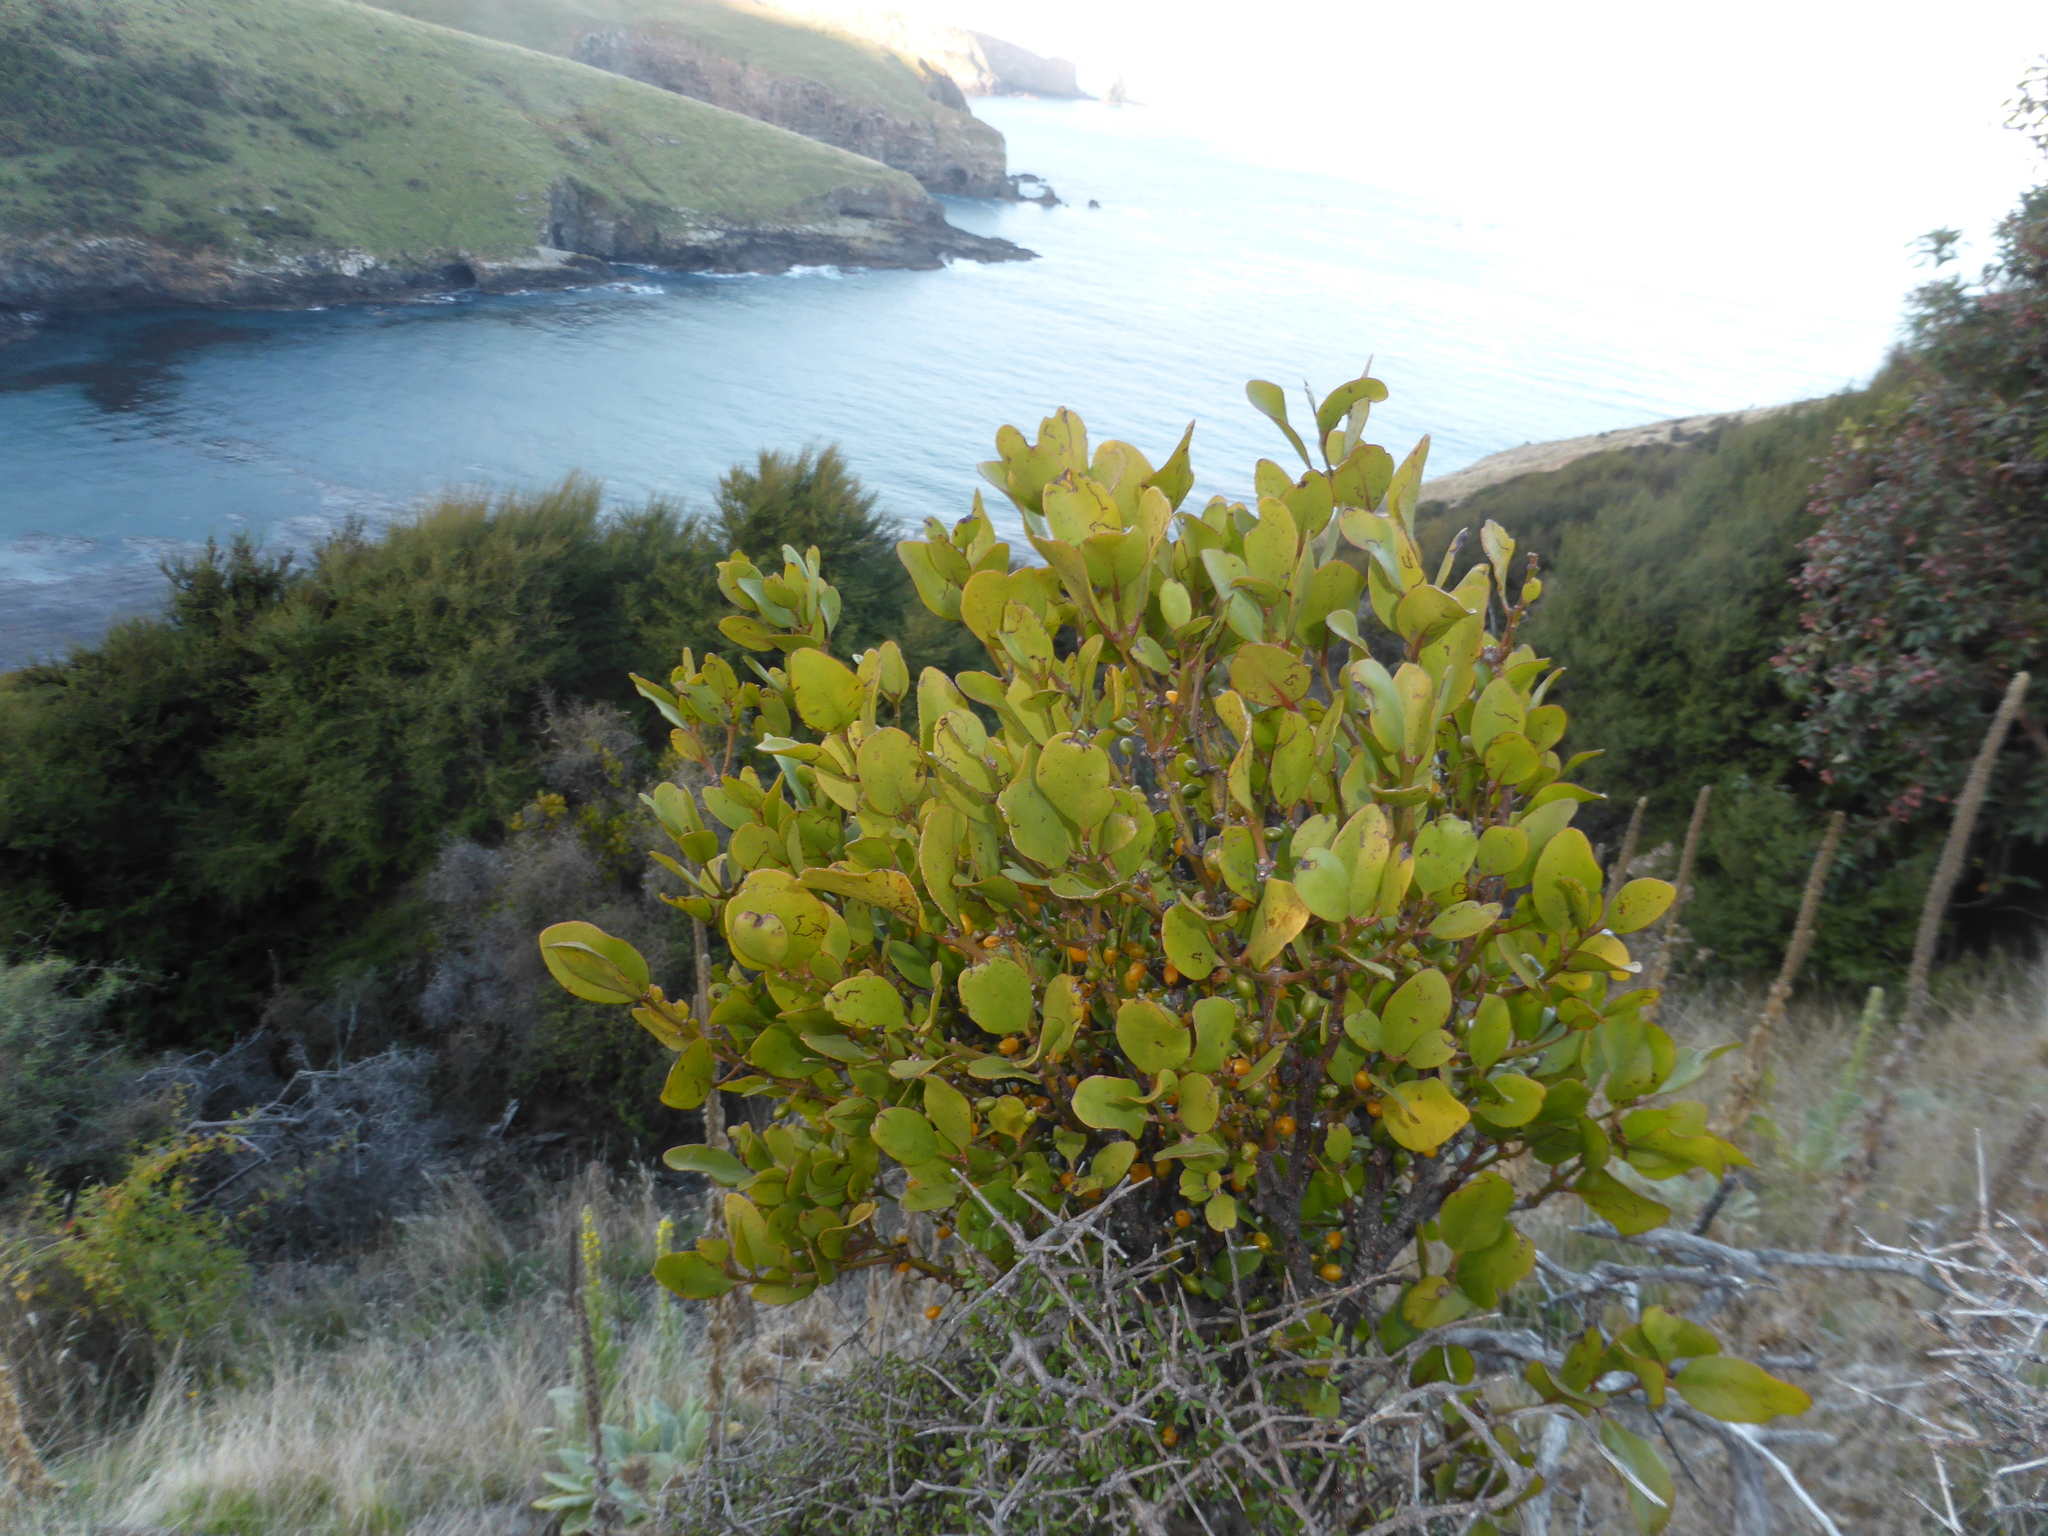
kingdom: Plantae
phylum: Tracheophyta
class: Magnoliopsida
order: Santalales
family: Loranthaceae
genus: Ileostylus
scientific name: Ileostylus micranthus
